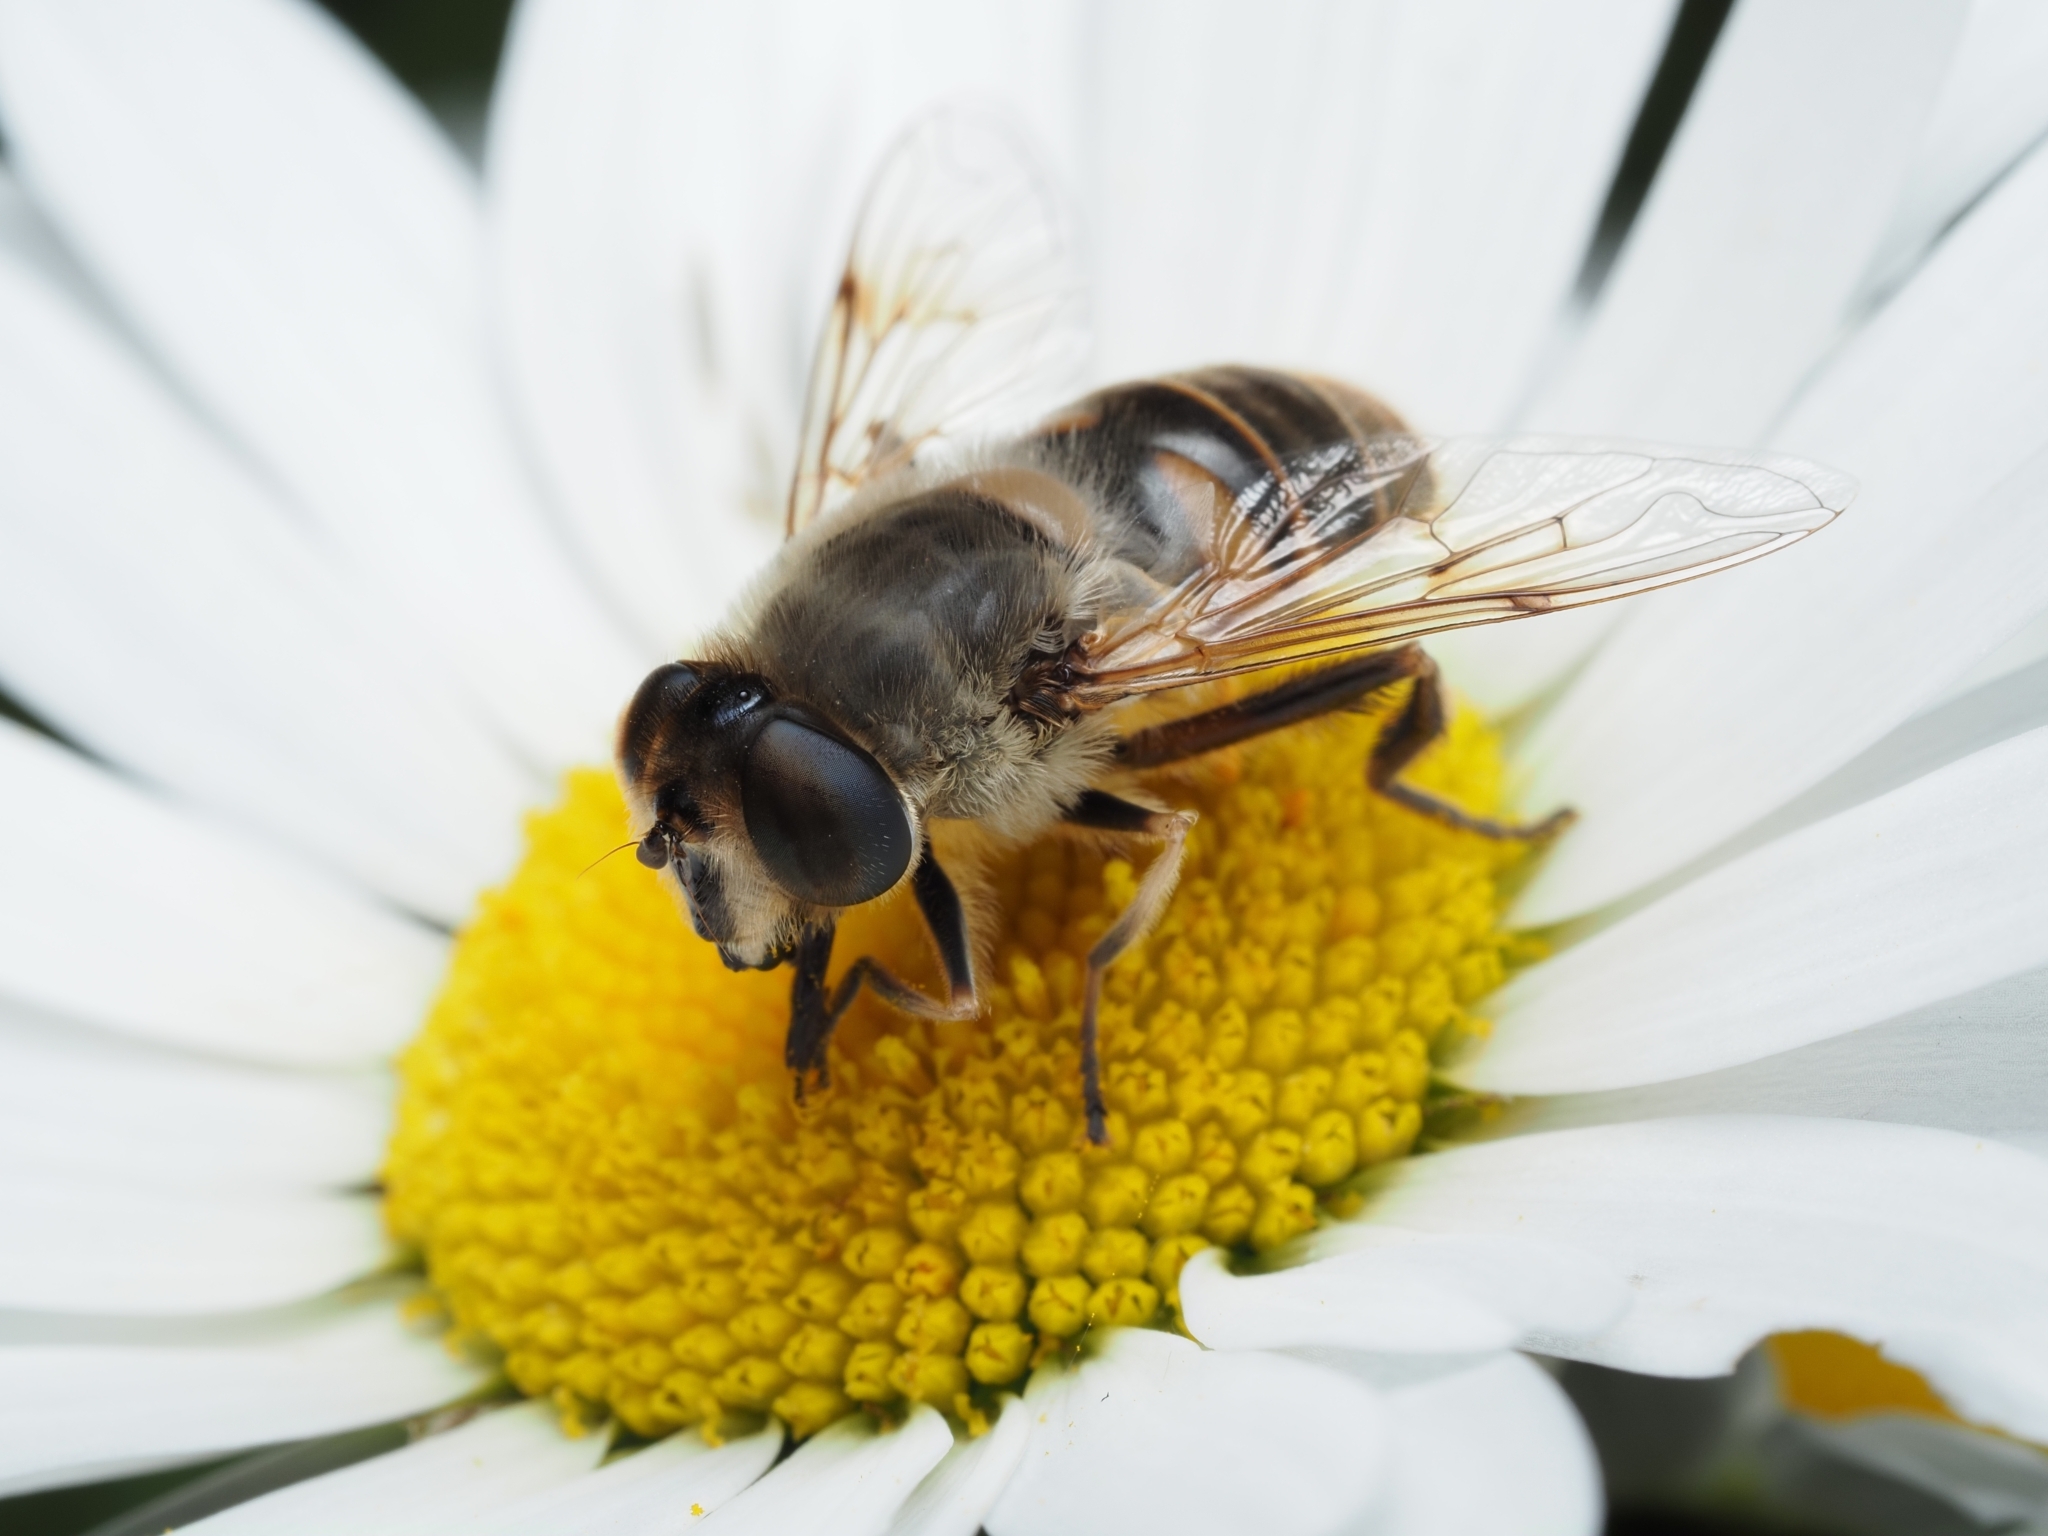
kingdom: Animalia
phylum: Arthropoda
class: Insecta
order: Diptera
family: Syrphidae
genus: Eristalis
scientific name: Eristalis tenax
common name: Drone fly
